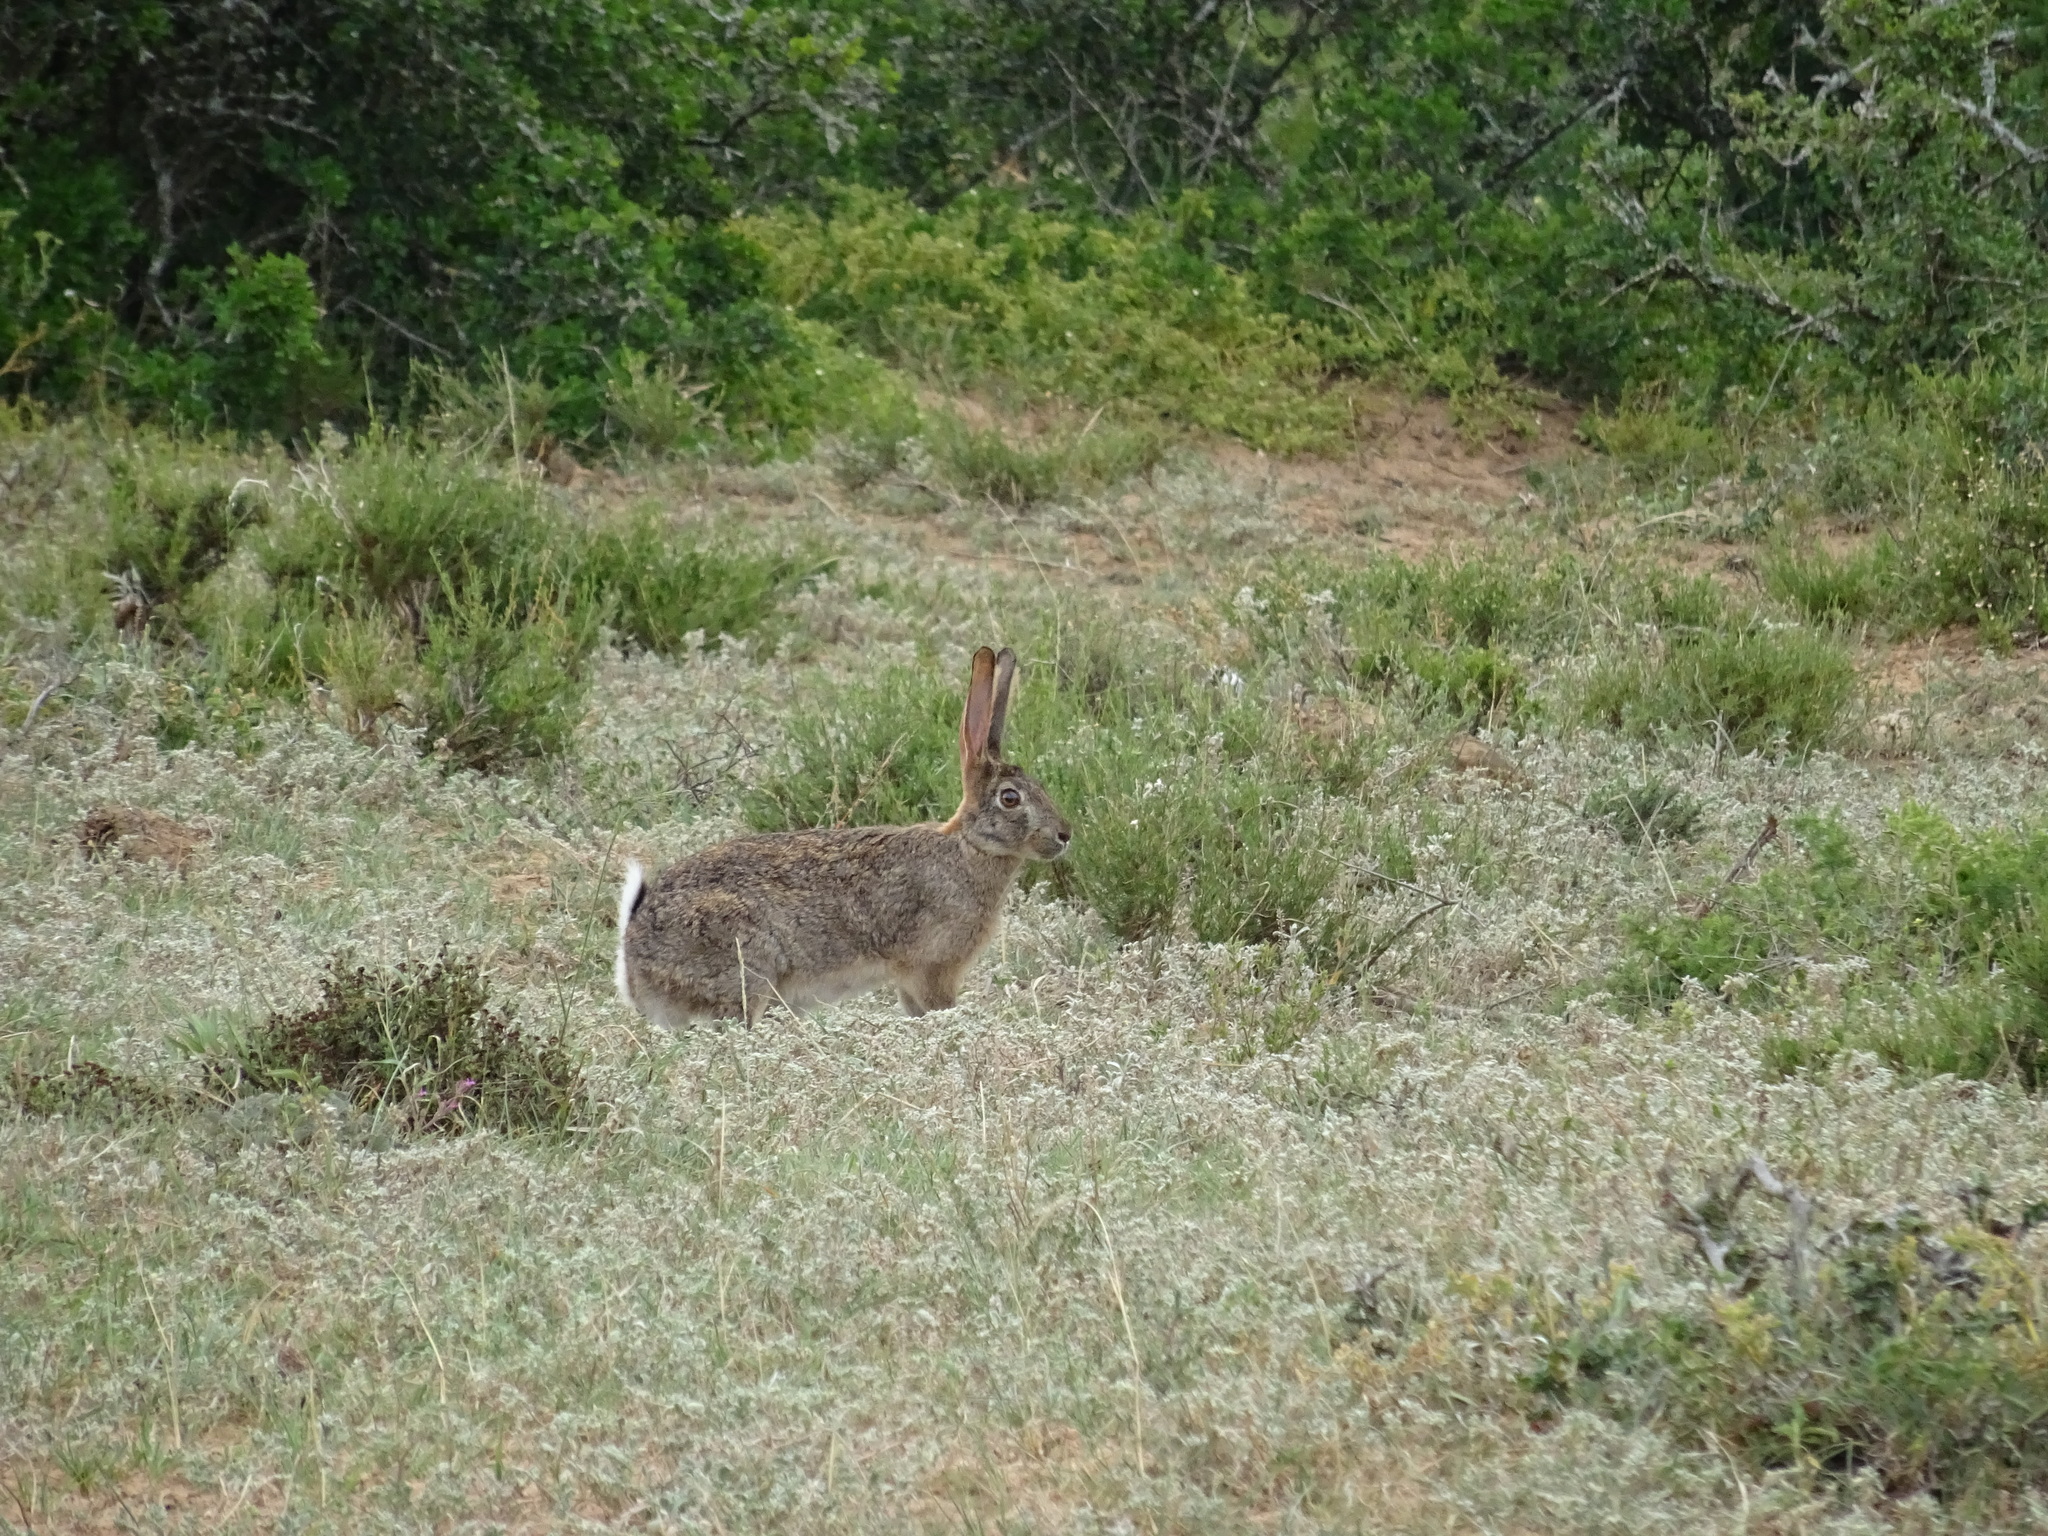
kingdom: Animalia
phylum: Chordata
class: Mammalia
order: Lagomorpha
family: Leporidae
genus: Lepus
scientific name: Lepus saxatilis
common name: Scrub hare
